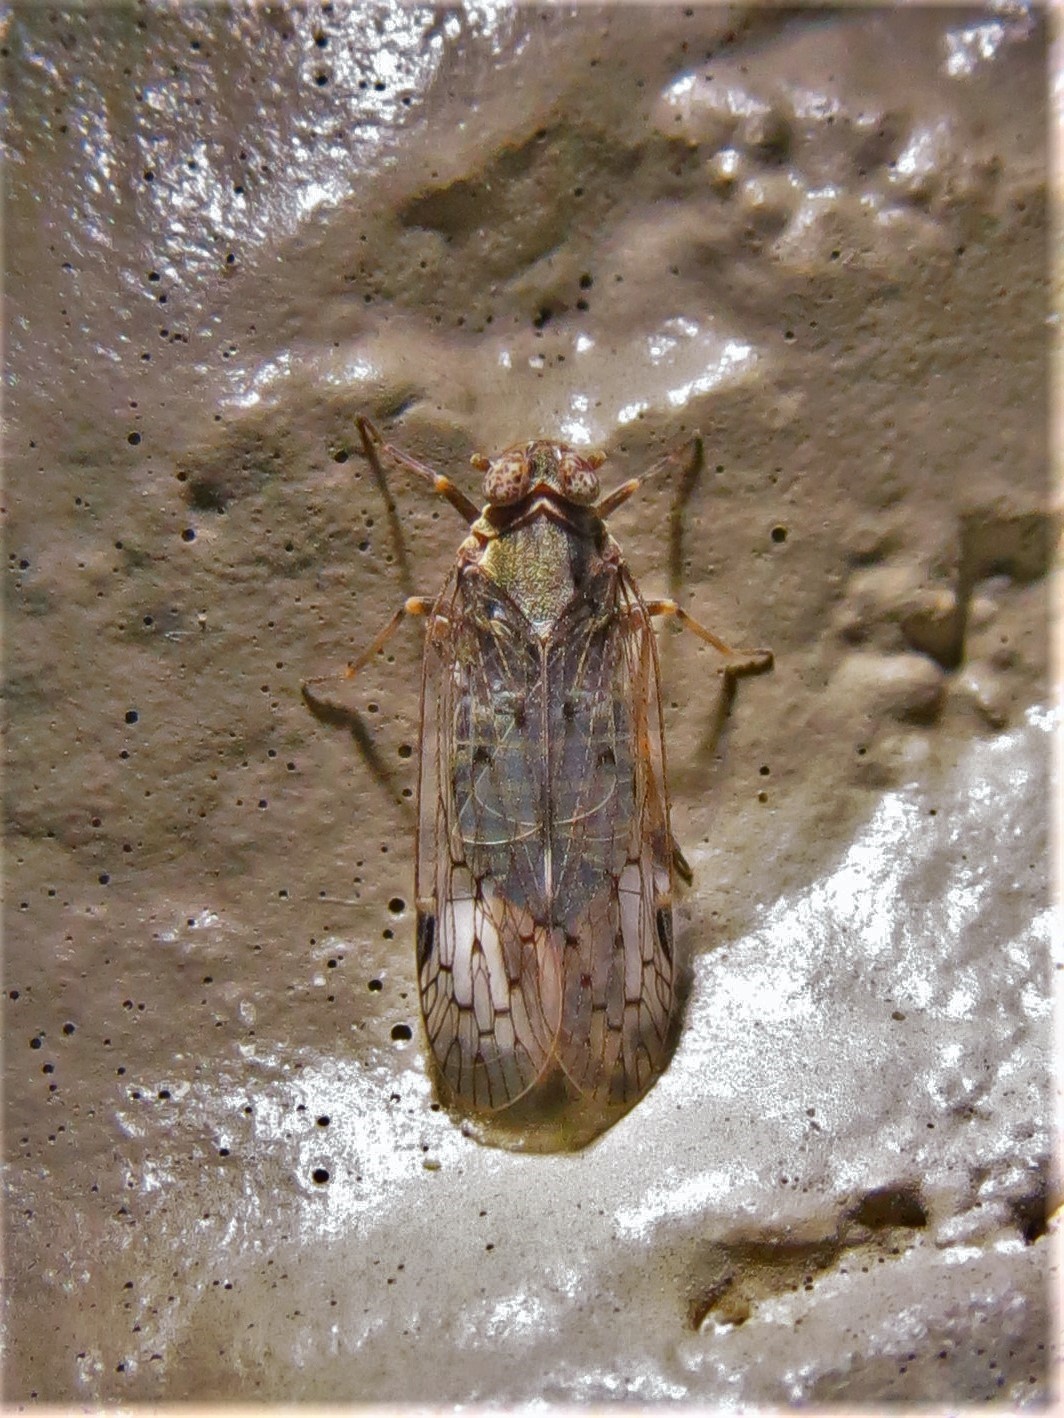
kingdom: Animalia
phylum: Arthropoda
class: Insecta
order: Hemiptera
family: Cixiidae
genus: Melanoliarus
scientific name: Melanoliarus aridus
